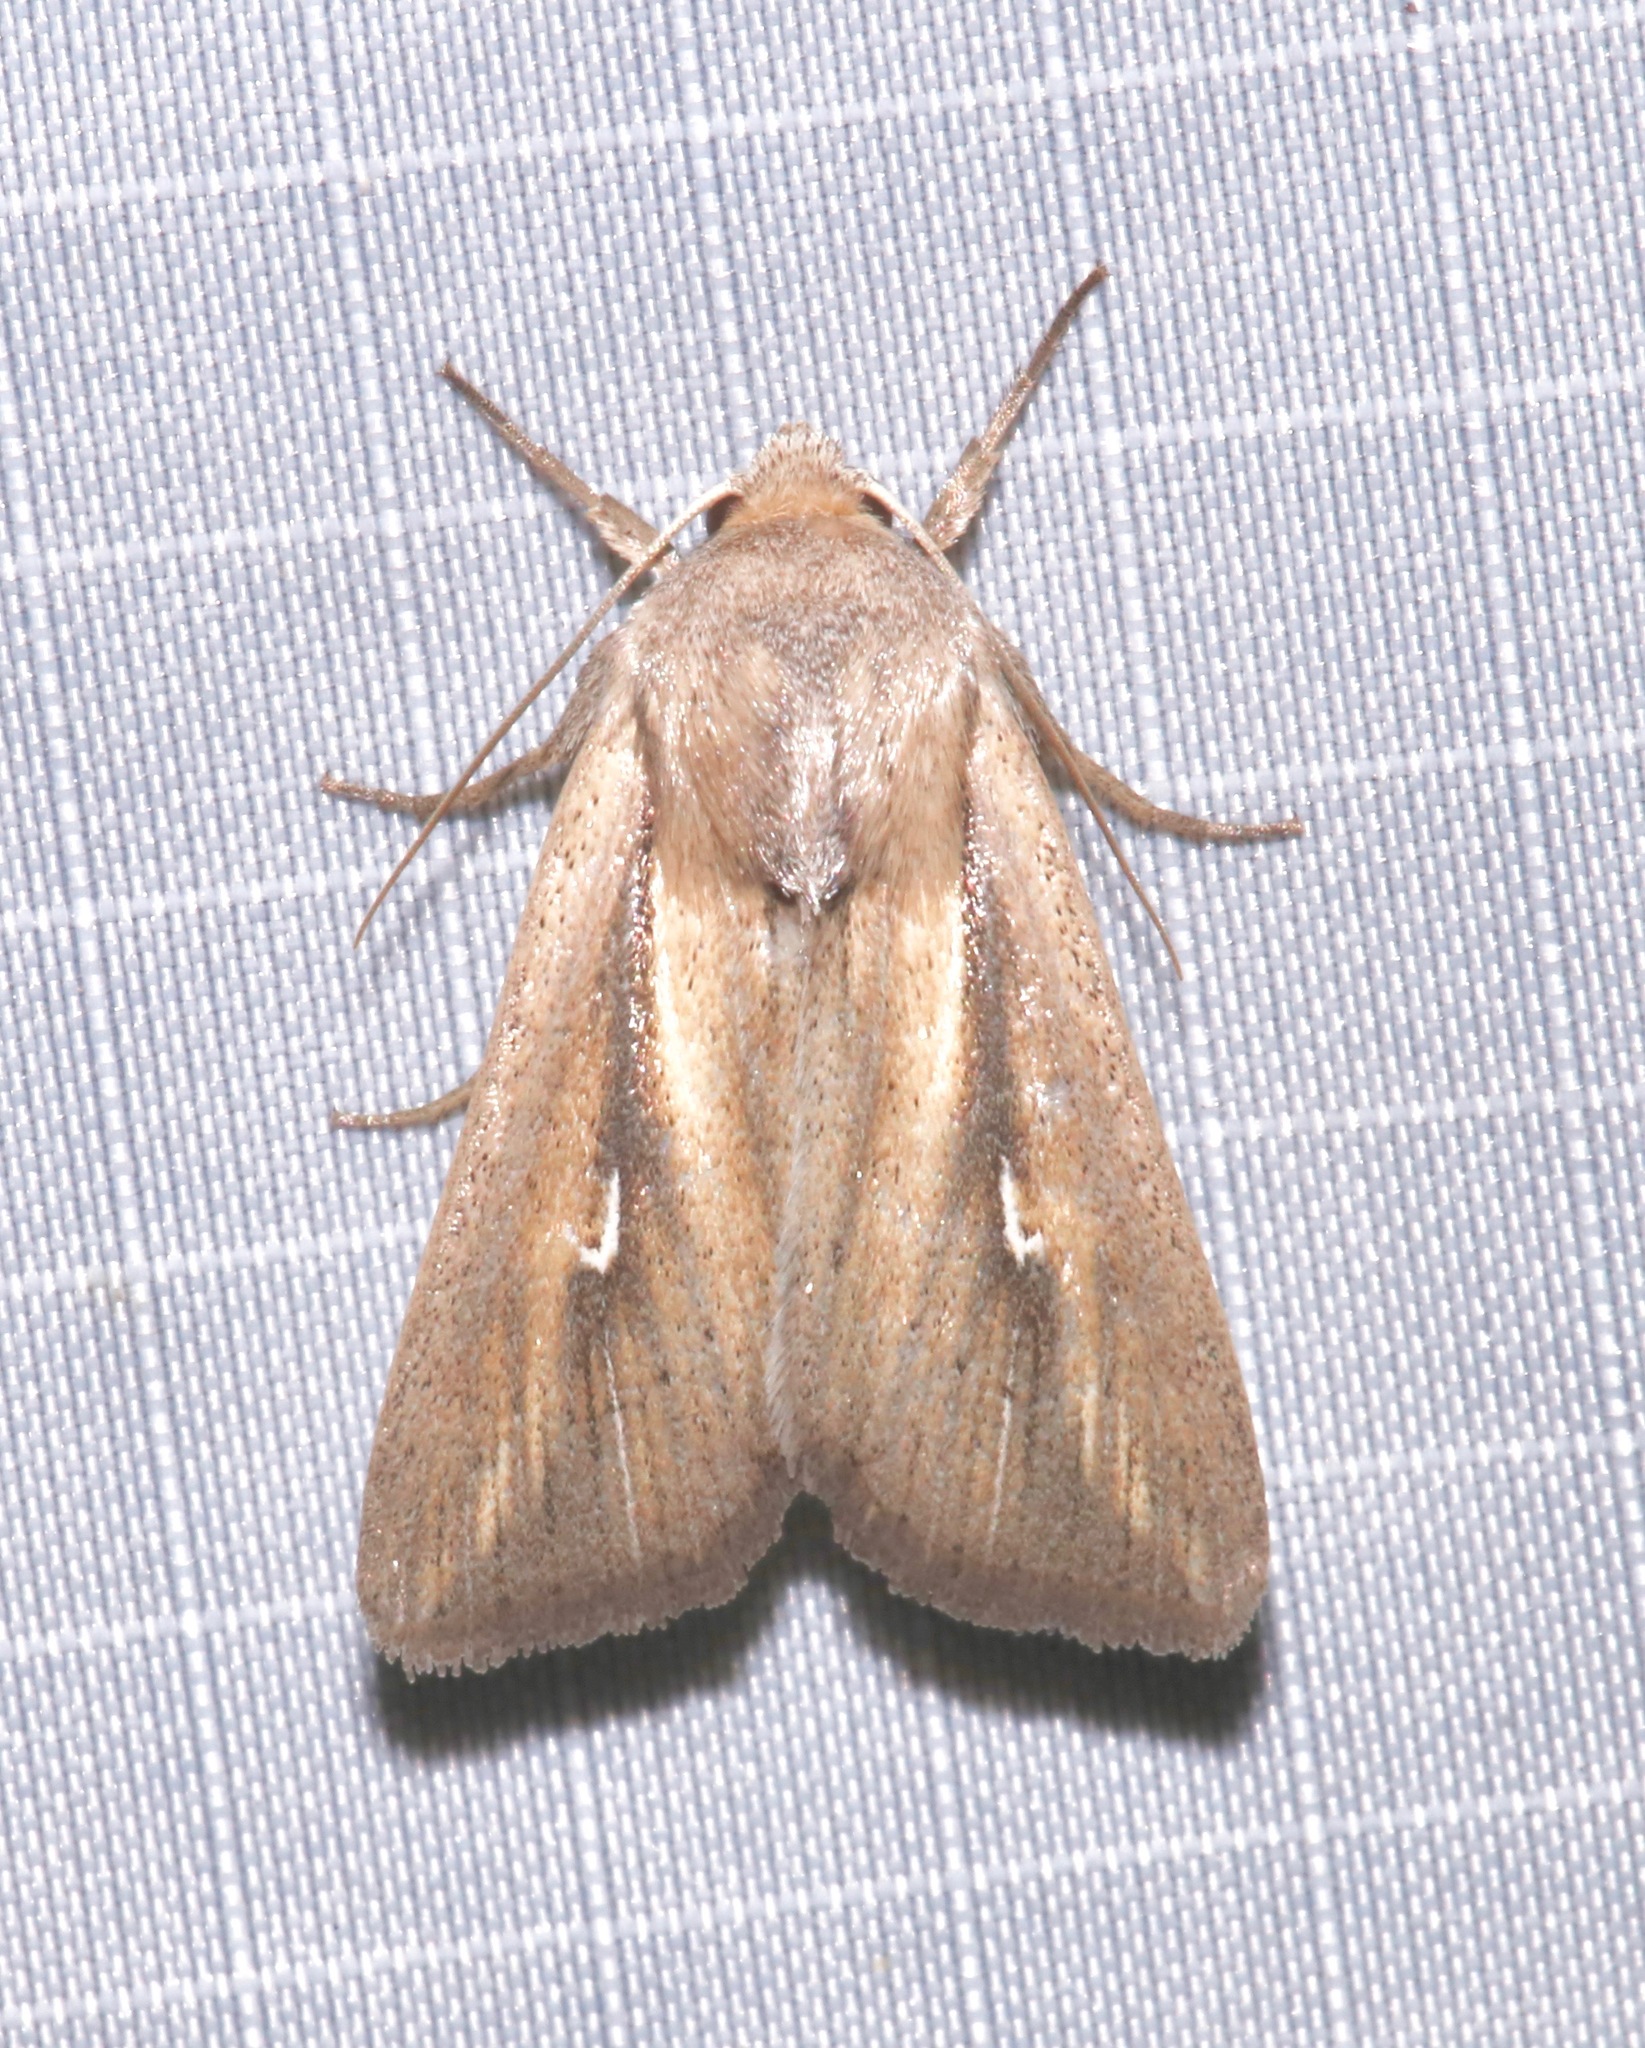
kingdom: Animalia
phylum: Arthropoda
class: Insecta
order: Lepidoptera
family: Noctuidae
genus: Leucania
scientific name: Leucania imperfecta
